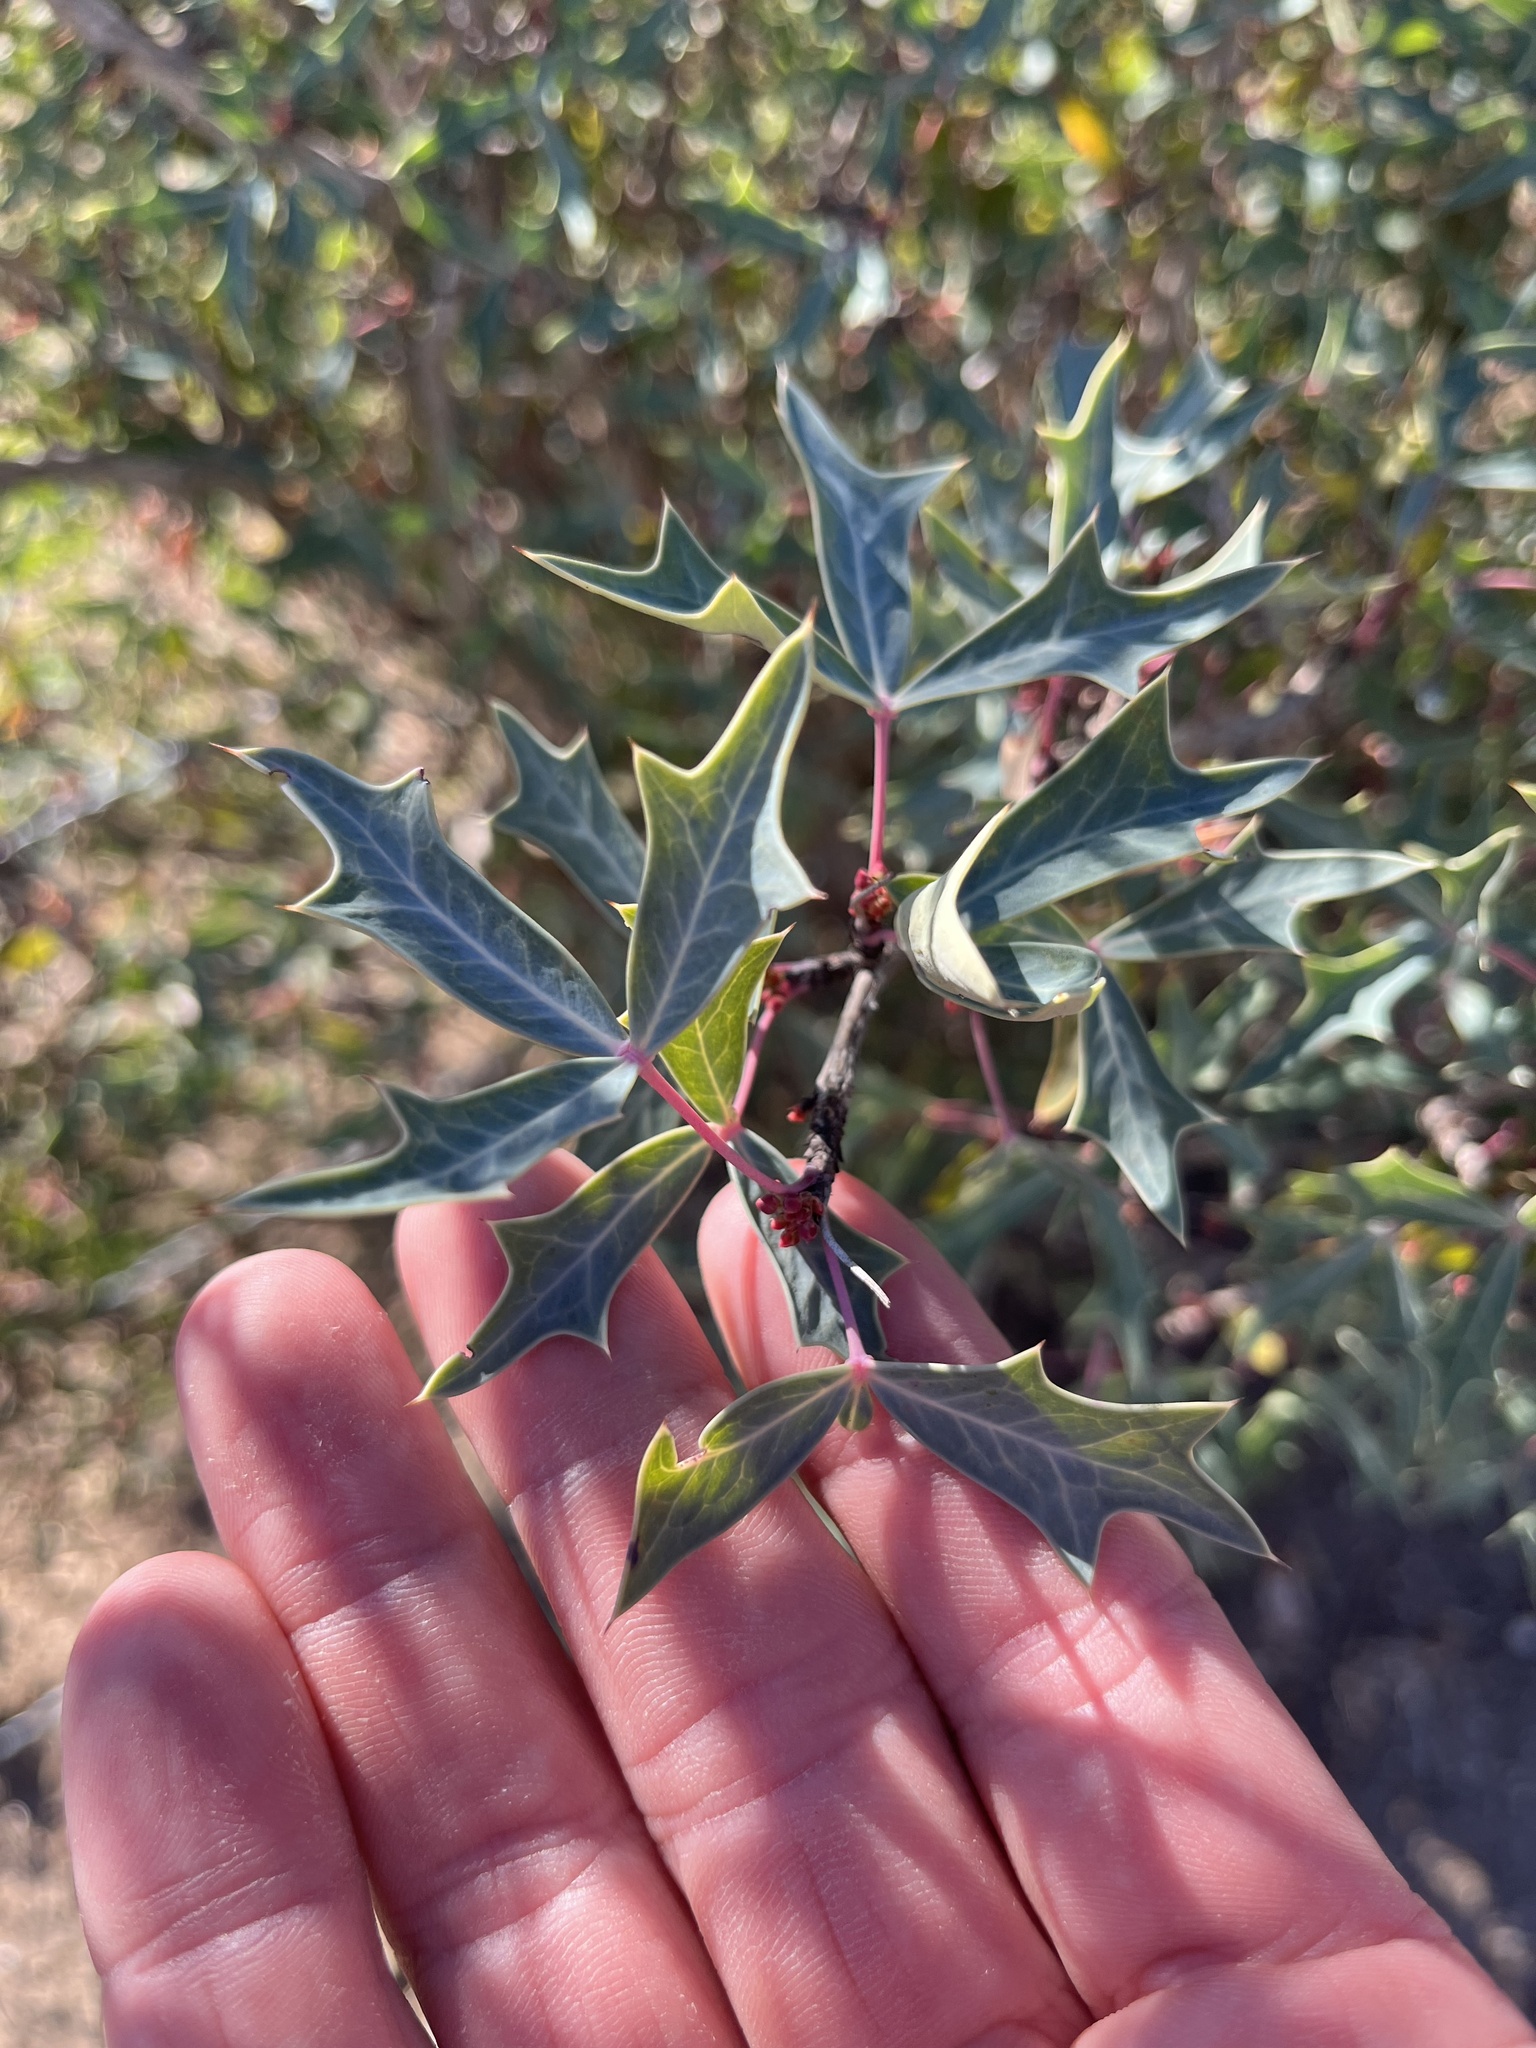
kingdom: Plantae
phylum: Tracheophyta
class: Magnoliopsida
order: Ranunculales
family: Berberidaceae
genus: Alloberberis
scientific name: Alloberberis trifoliolata
